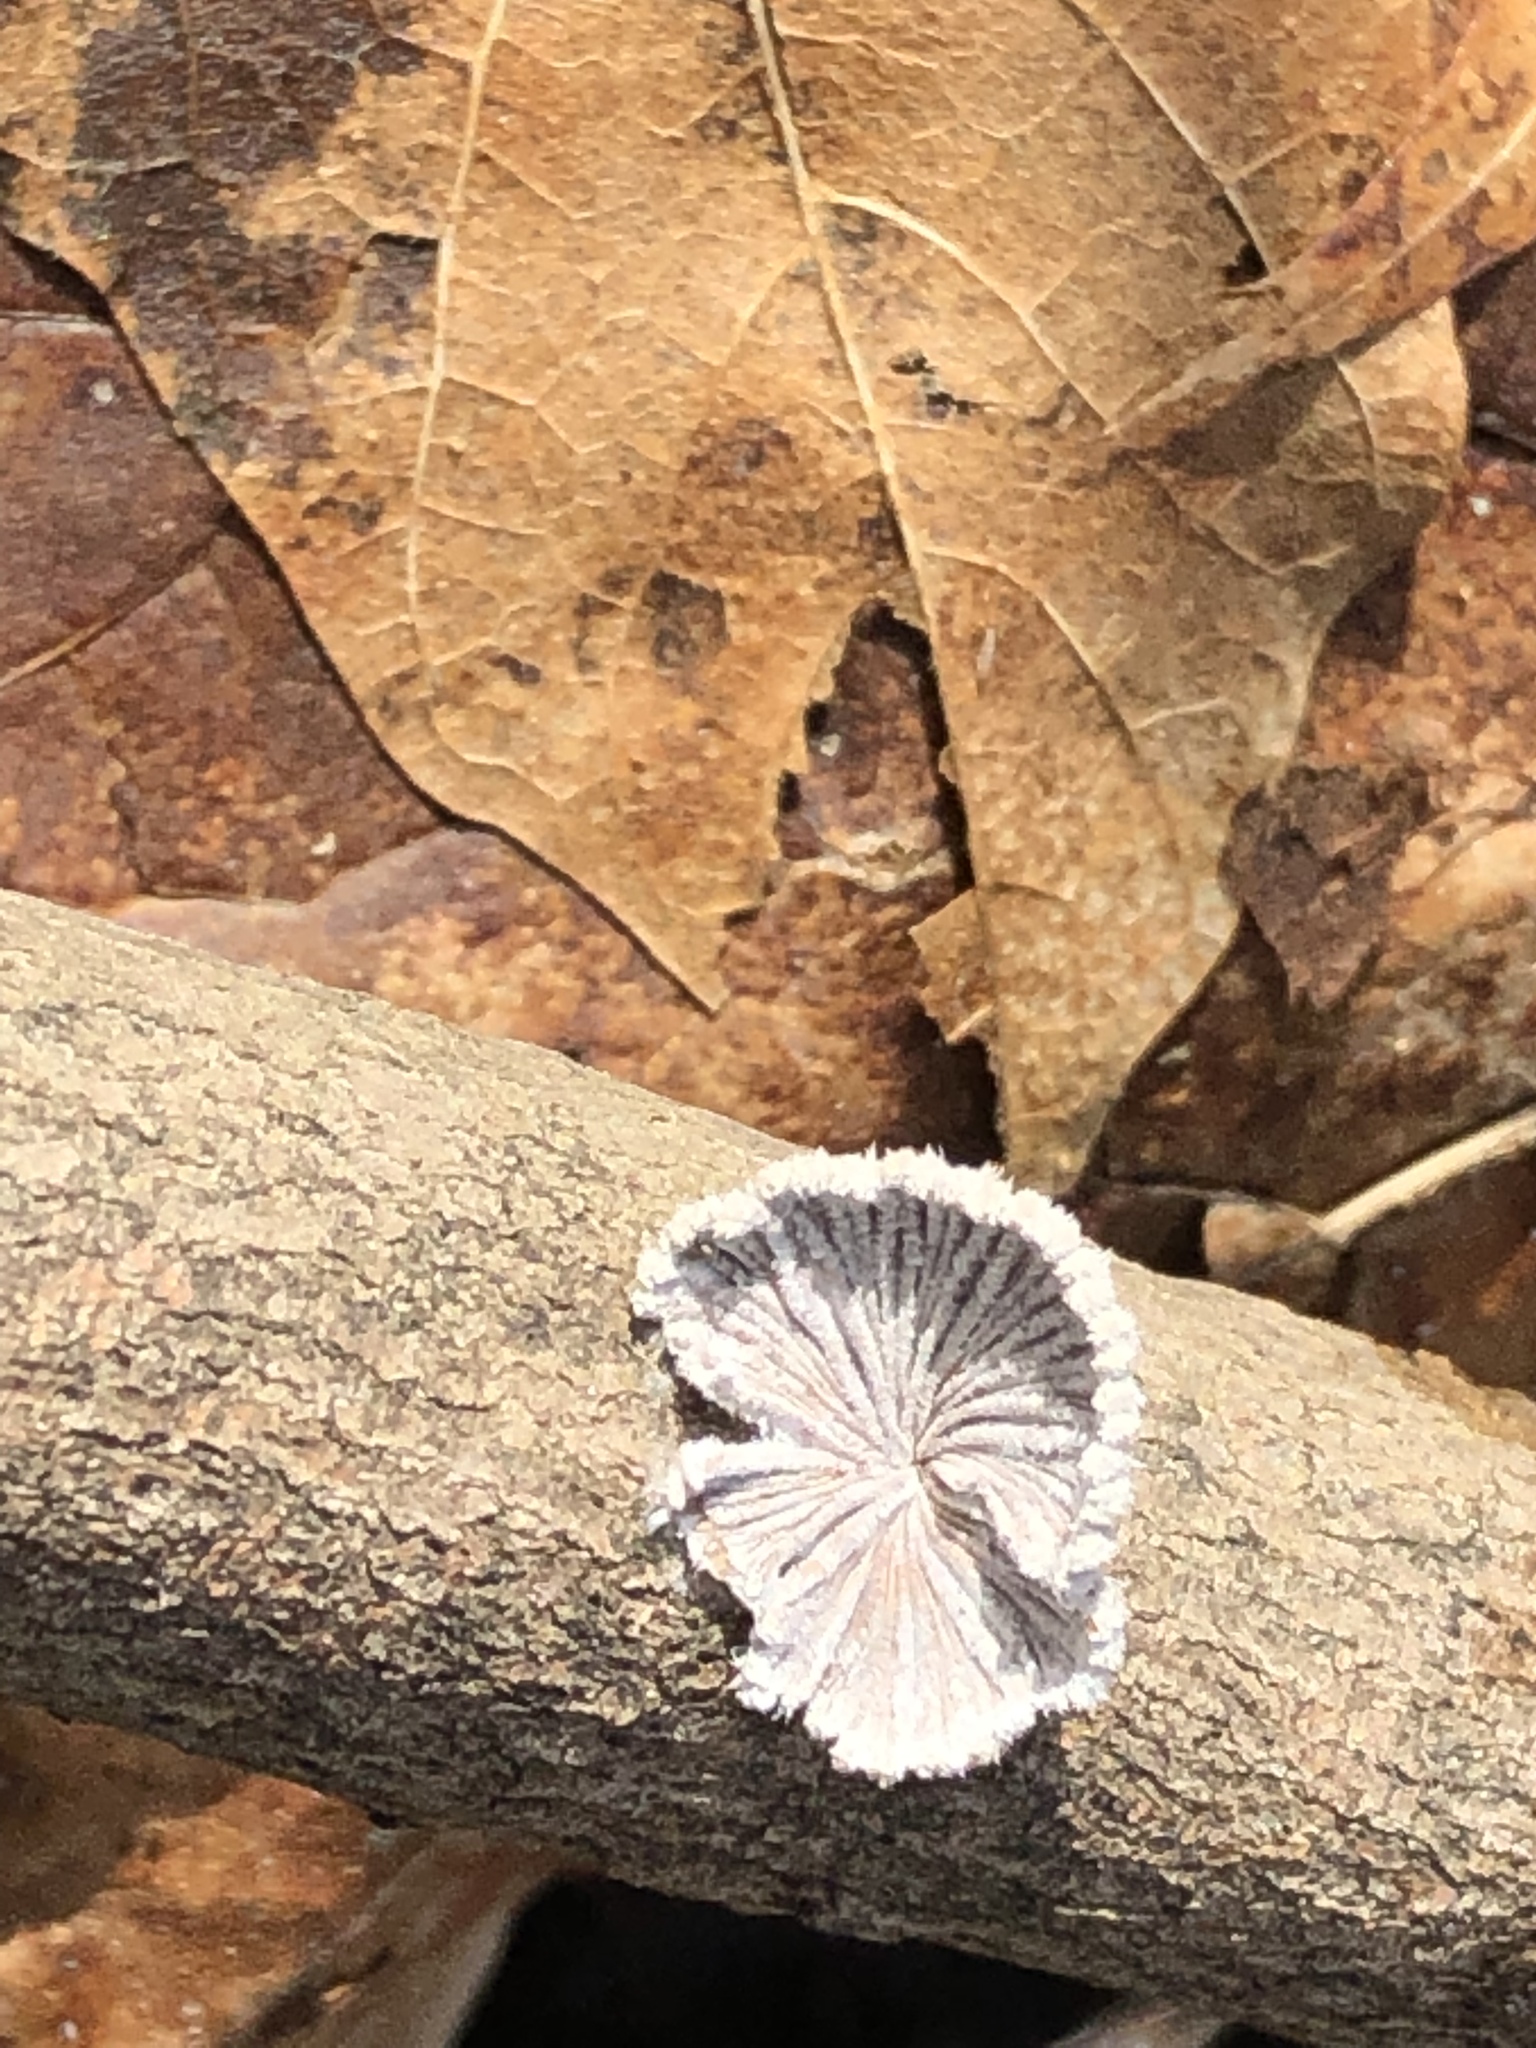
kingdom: Fungi
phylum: Basidiomycota
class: Agaricomycetes
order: Agaricales
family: Schizophyllaceae
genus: Schizophyllum
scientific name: Schizophyllum commune
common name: Common porecrust
